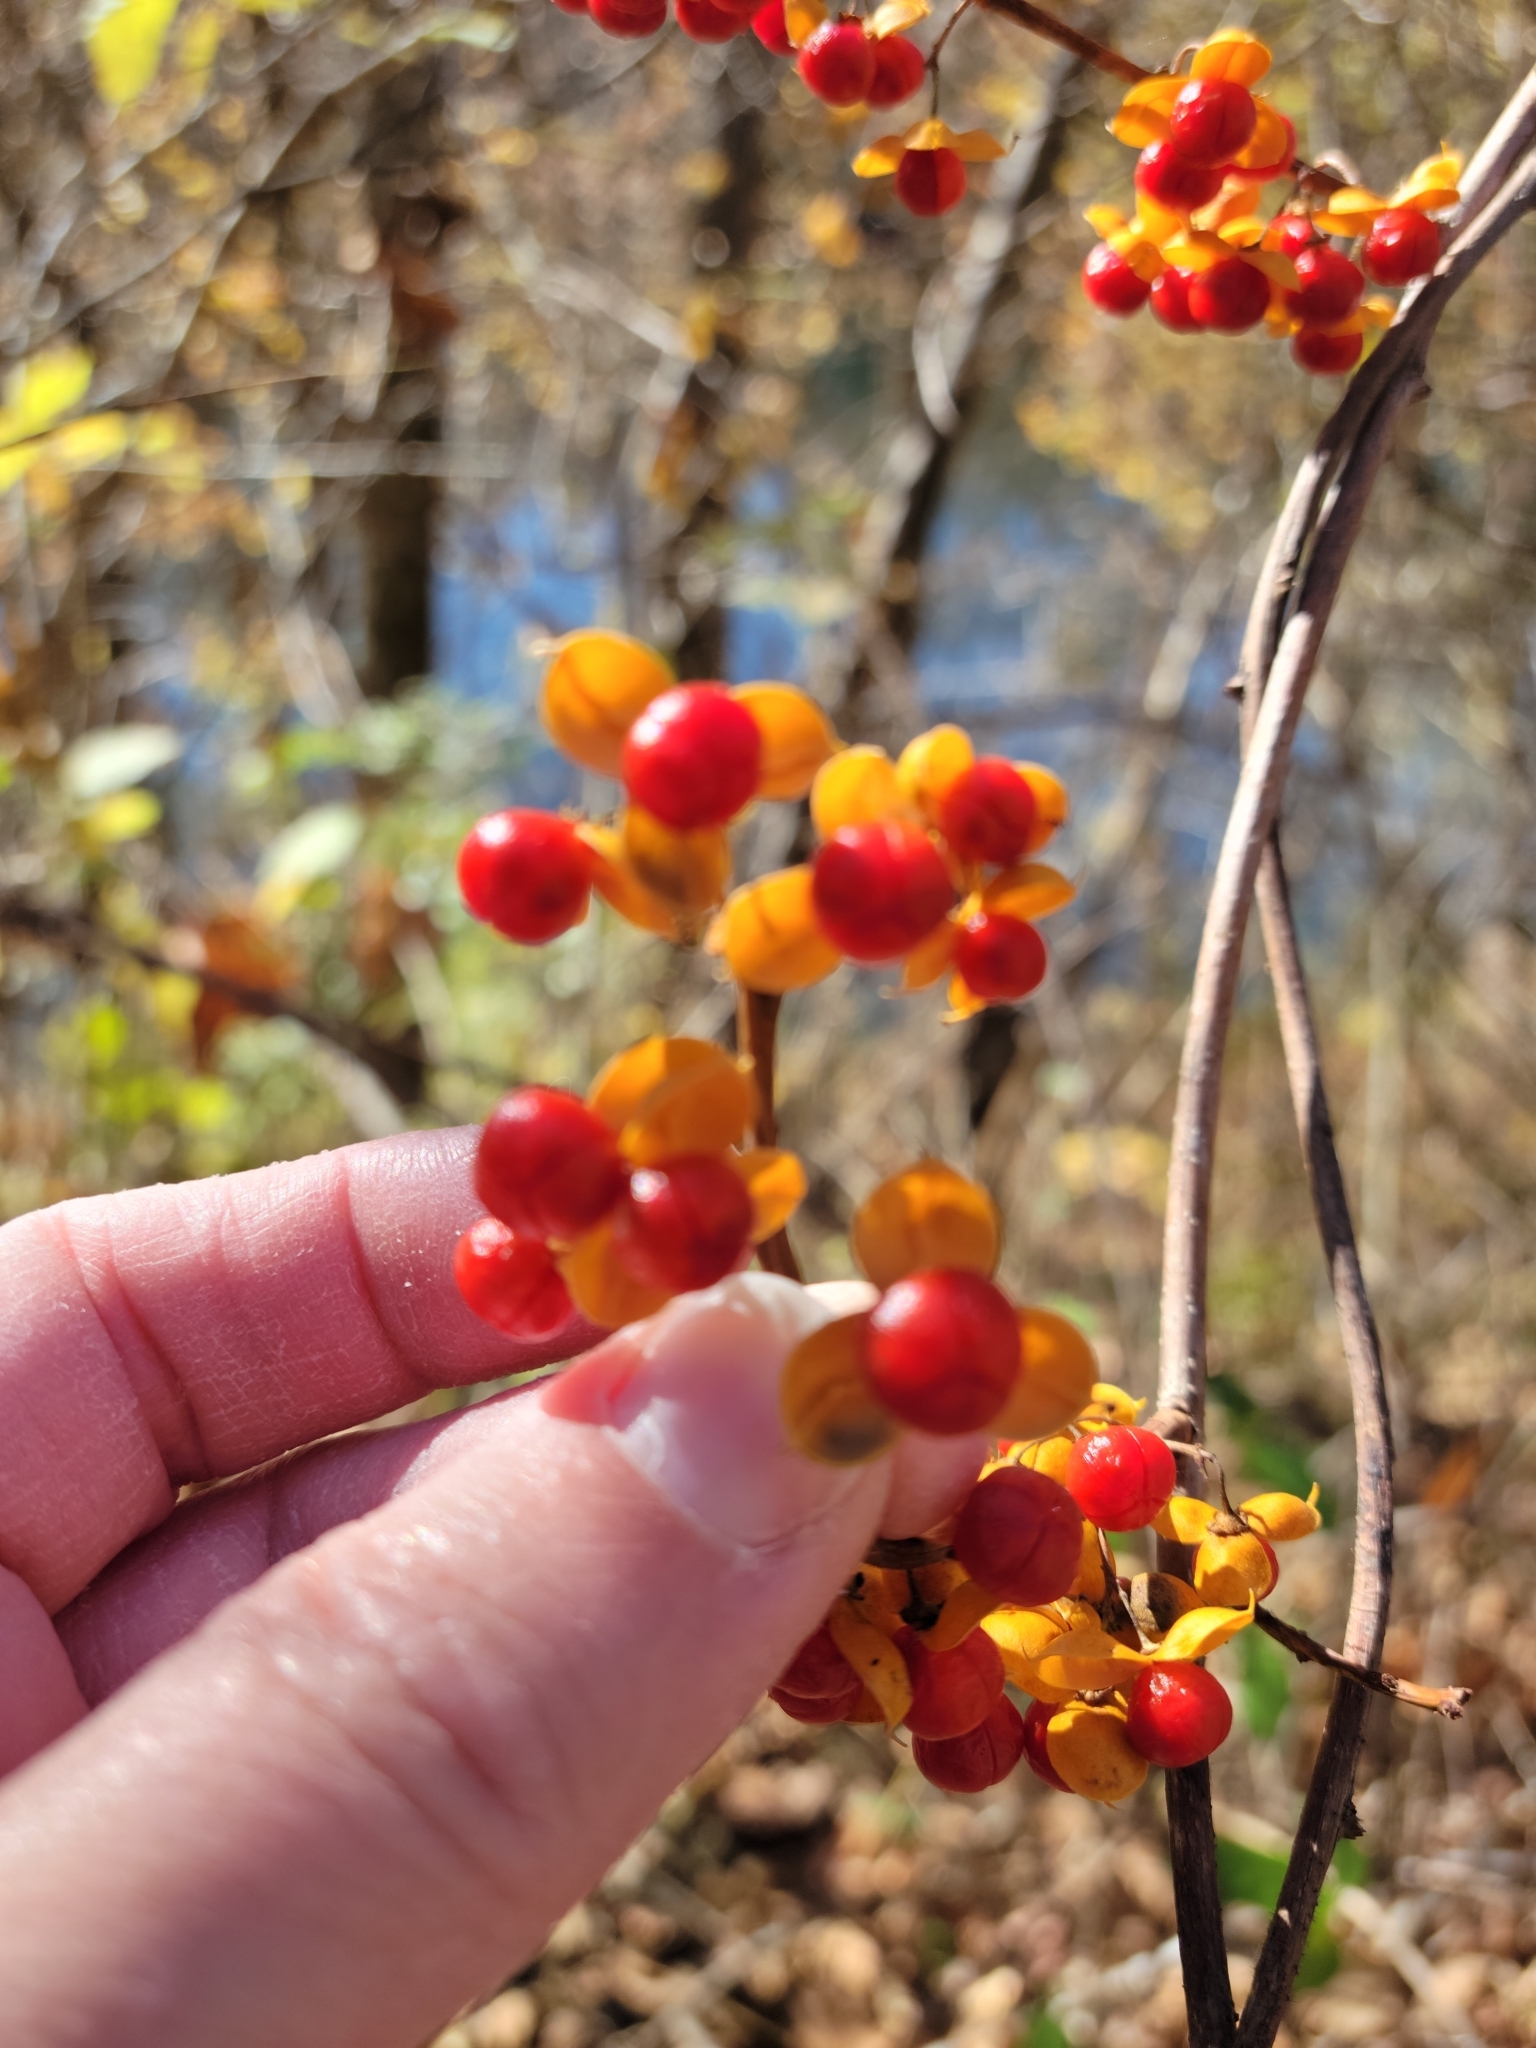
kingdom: Plantae
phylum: Tracheophyta
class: Magnoliopsida
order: Celastrales
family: Celastraceae
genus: Celastrus
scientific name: Celastrus orbiculatus
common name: Oriental bittersweet
